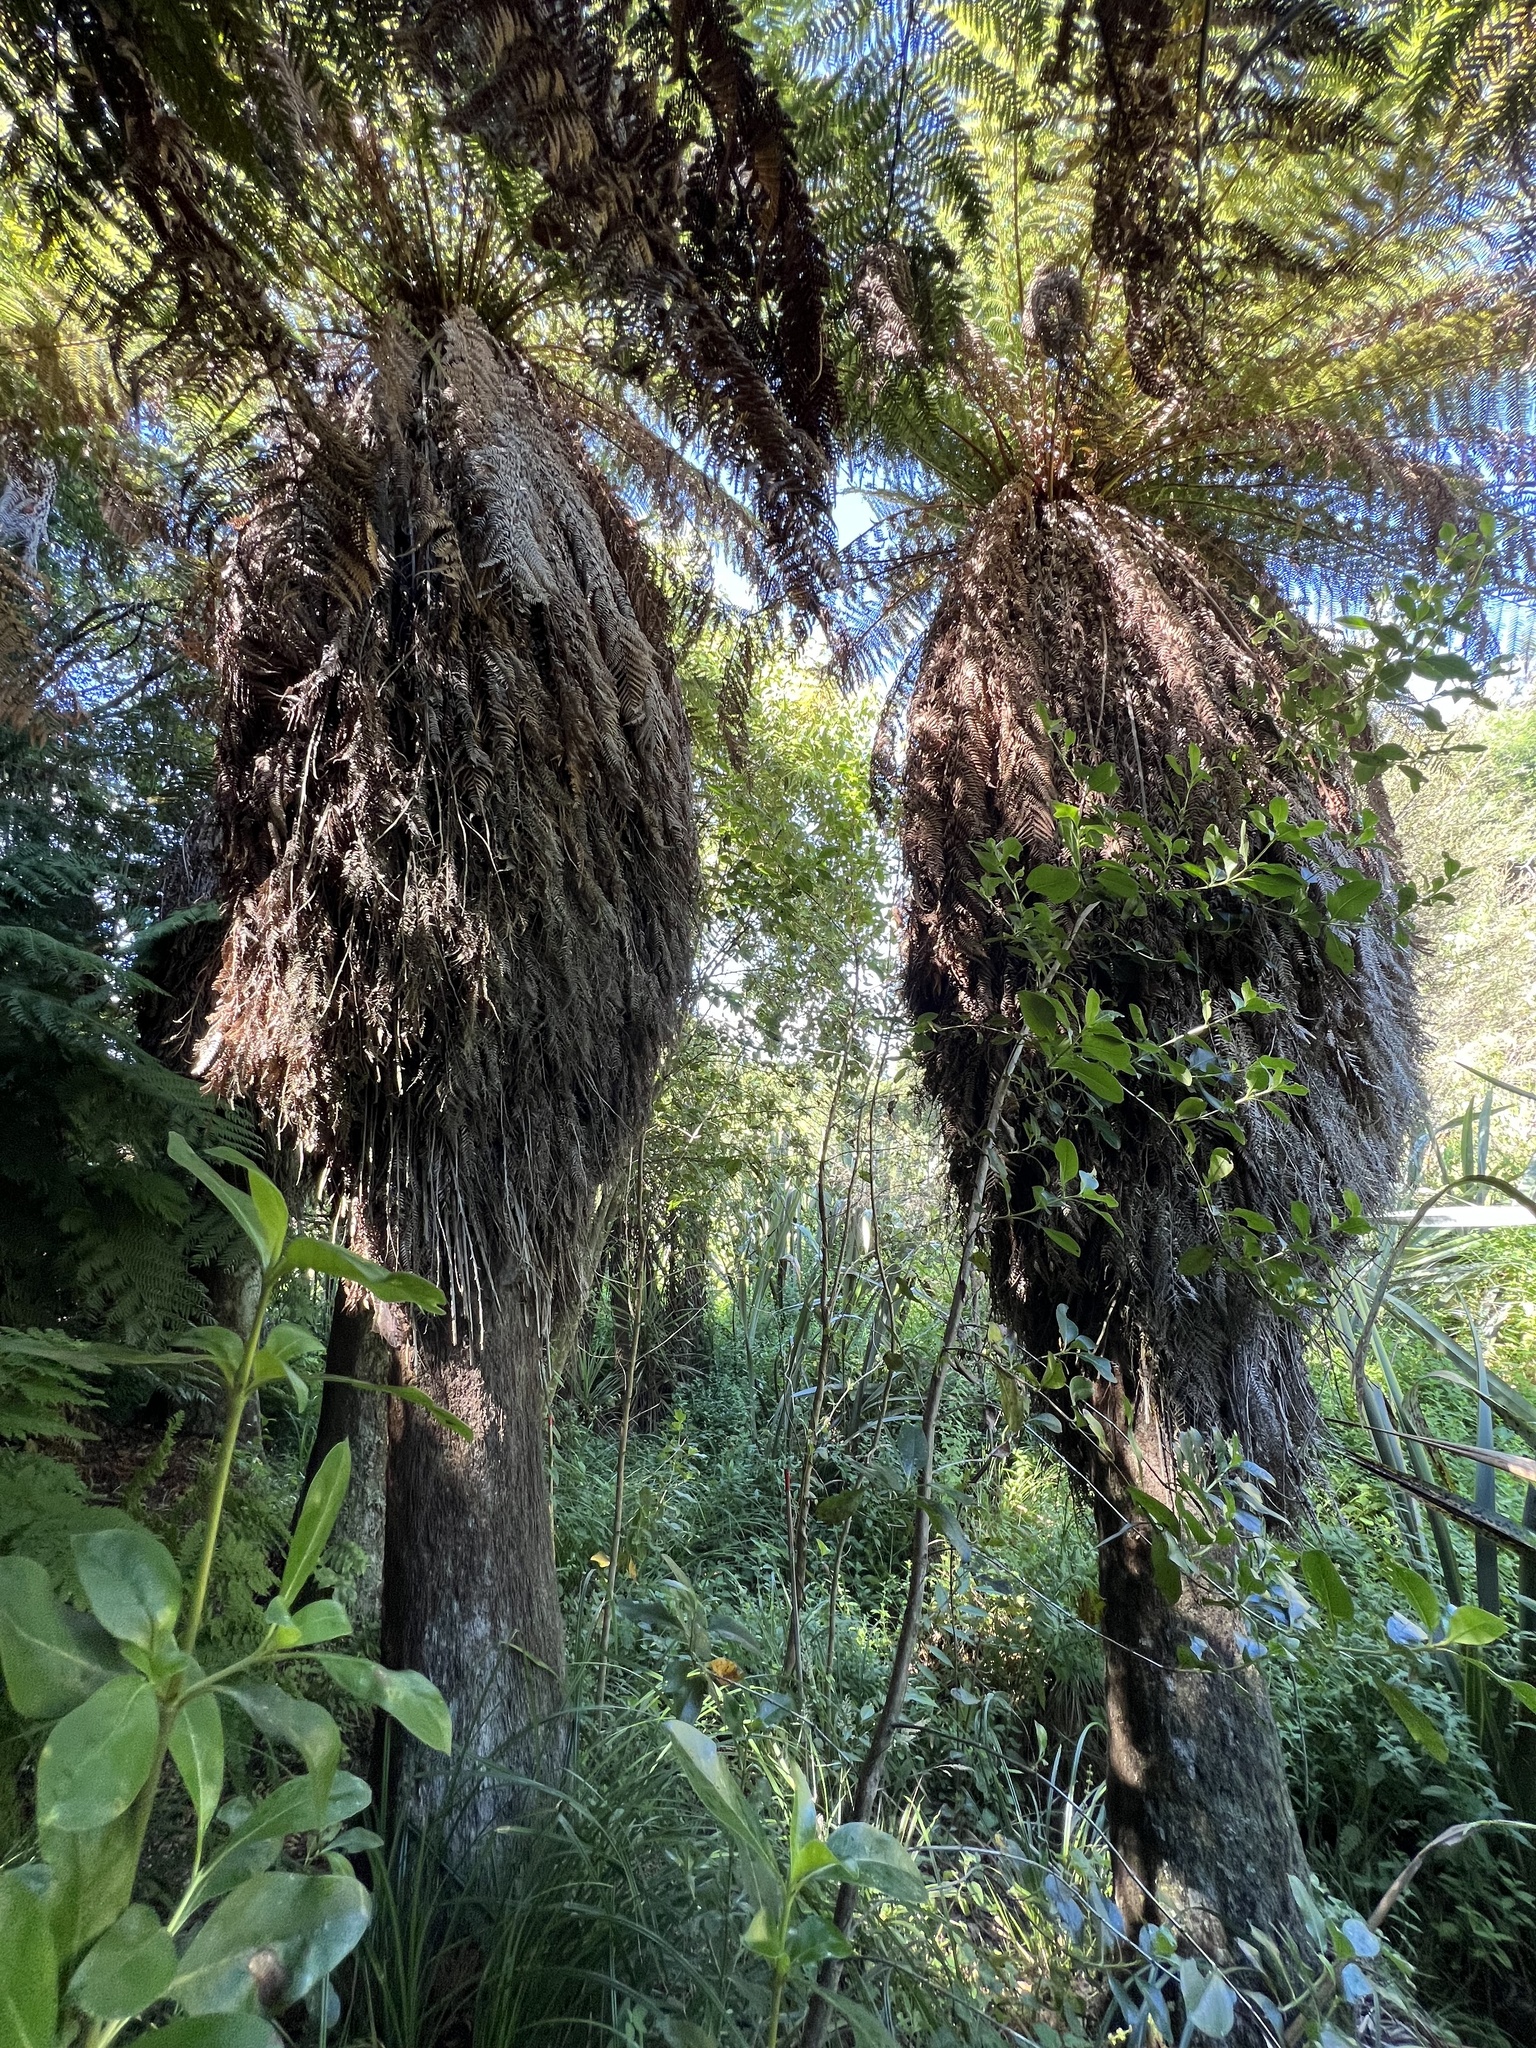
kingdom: Plantae
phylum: Tracheophyta
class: Polypodiopsida
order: Cyatheales
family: Dicksoniaceae
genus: Dicksonia
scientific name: Dicksonia fibrosa
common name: Golden tree fern
